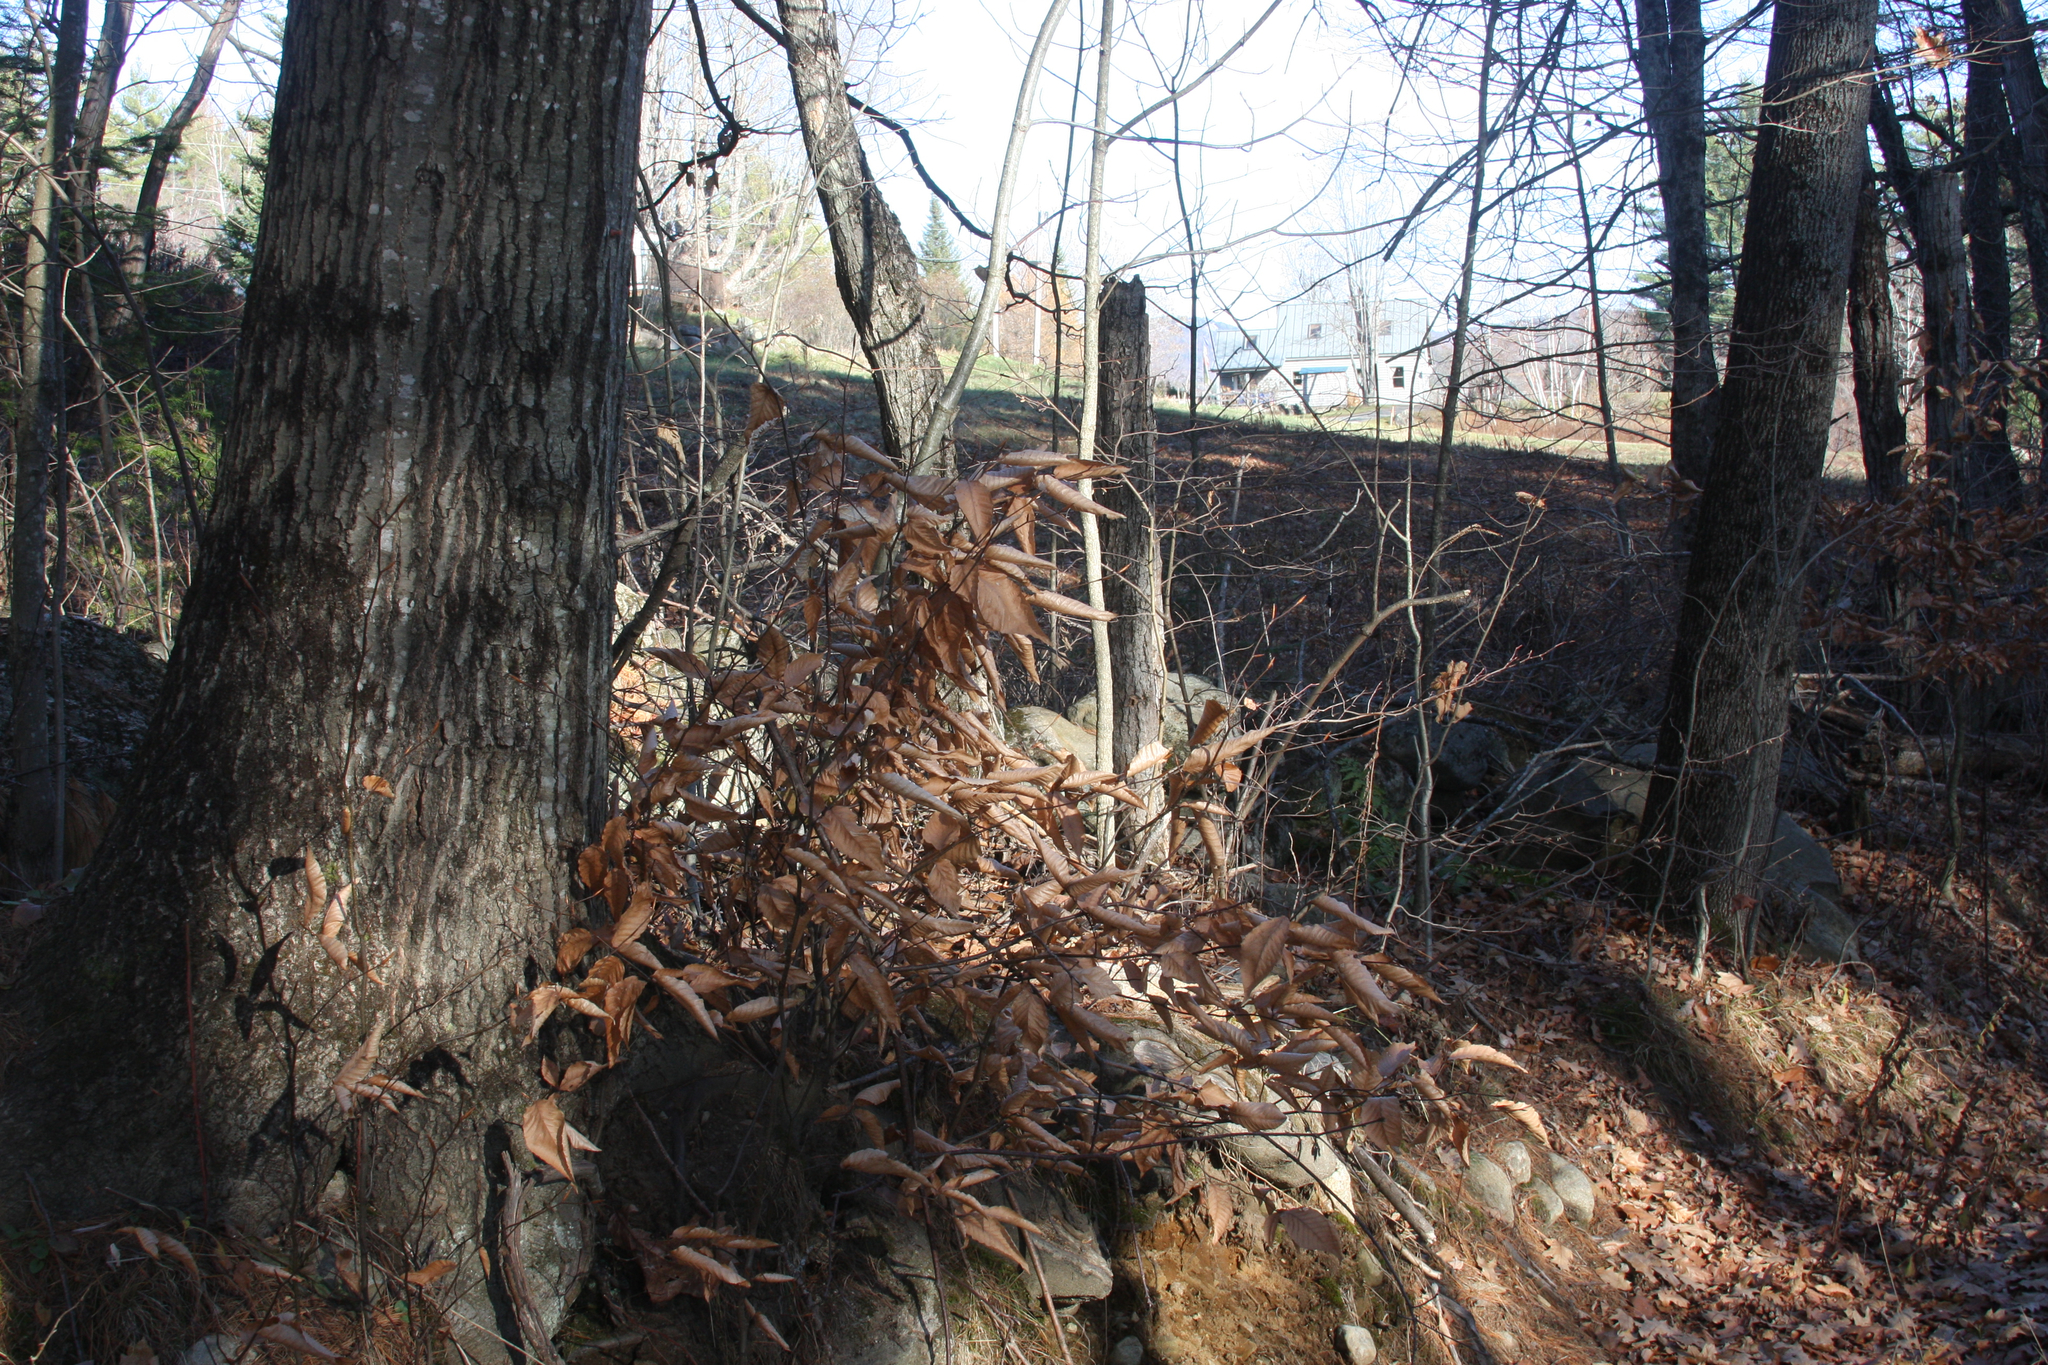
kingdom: Plantae
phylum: Tracheophyta
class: Magnoliopsida
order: Fagales
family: Fagaceae
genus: Fagus
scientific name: Fagus grandifolia
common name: American beech
